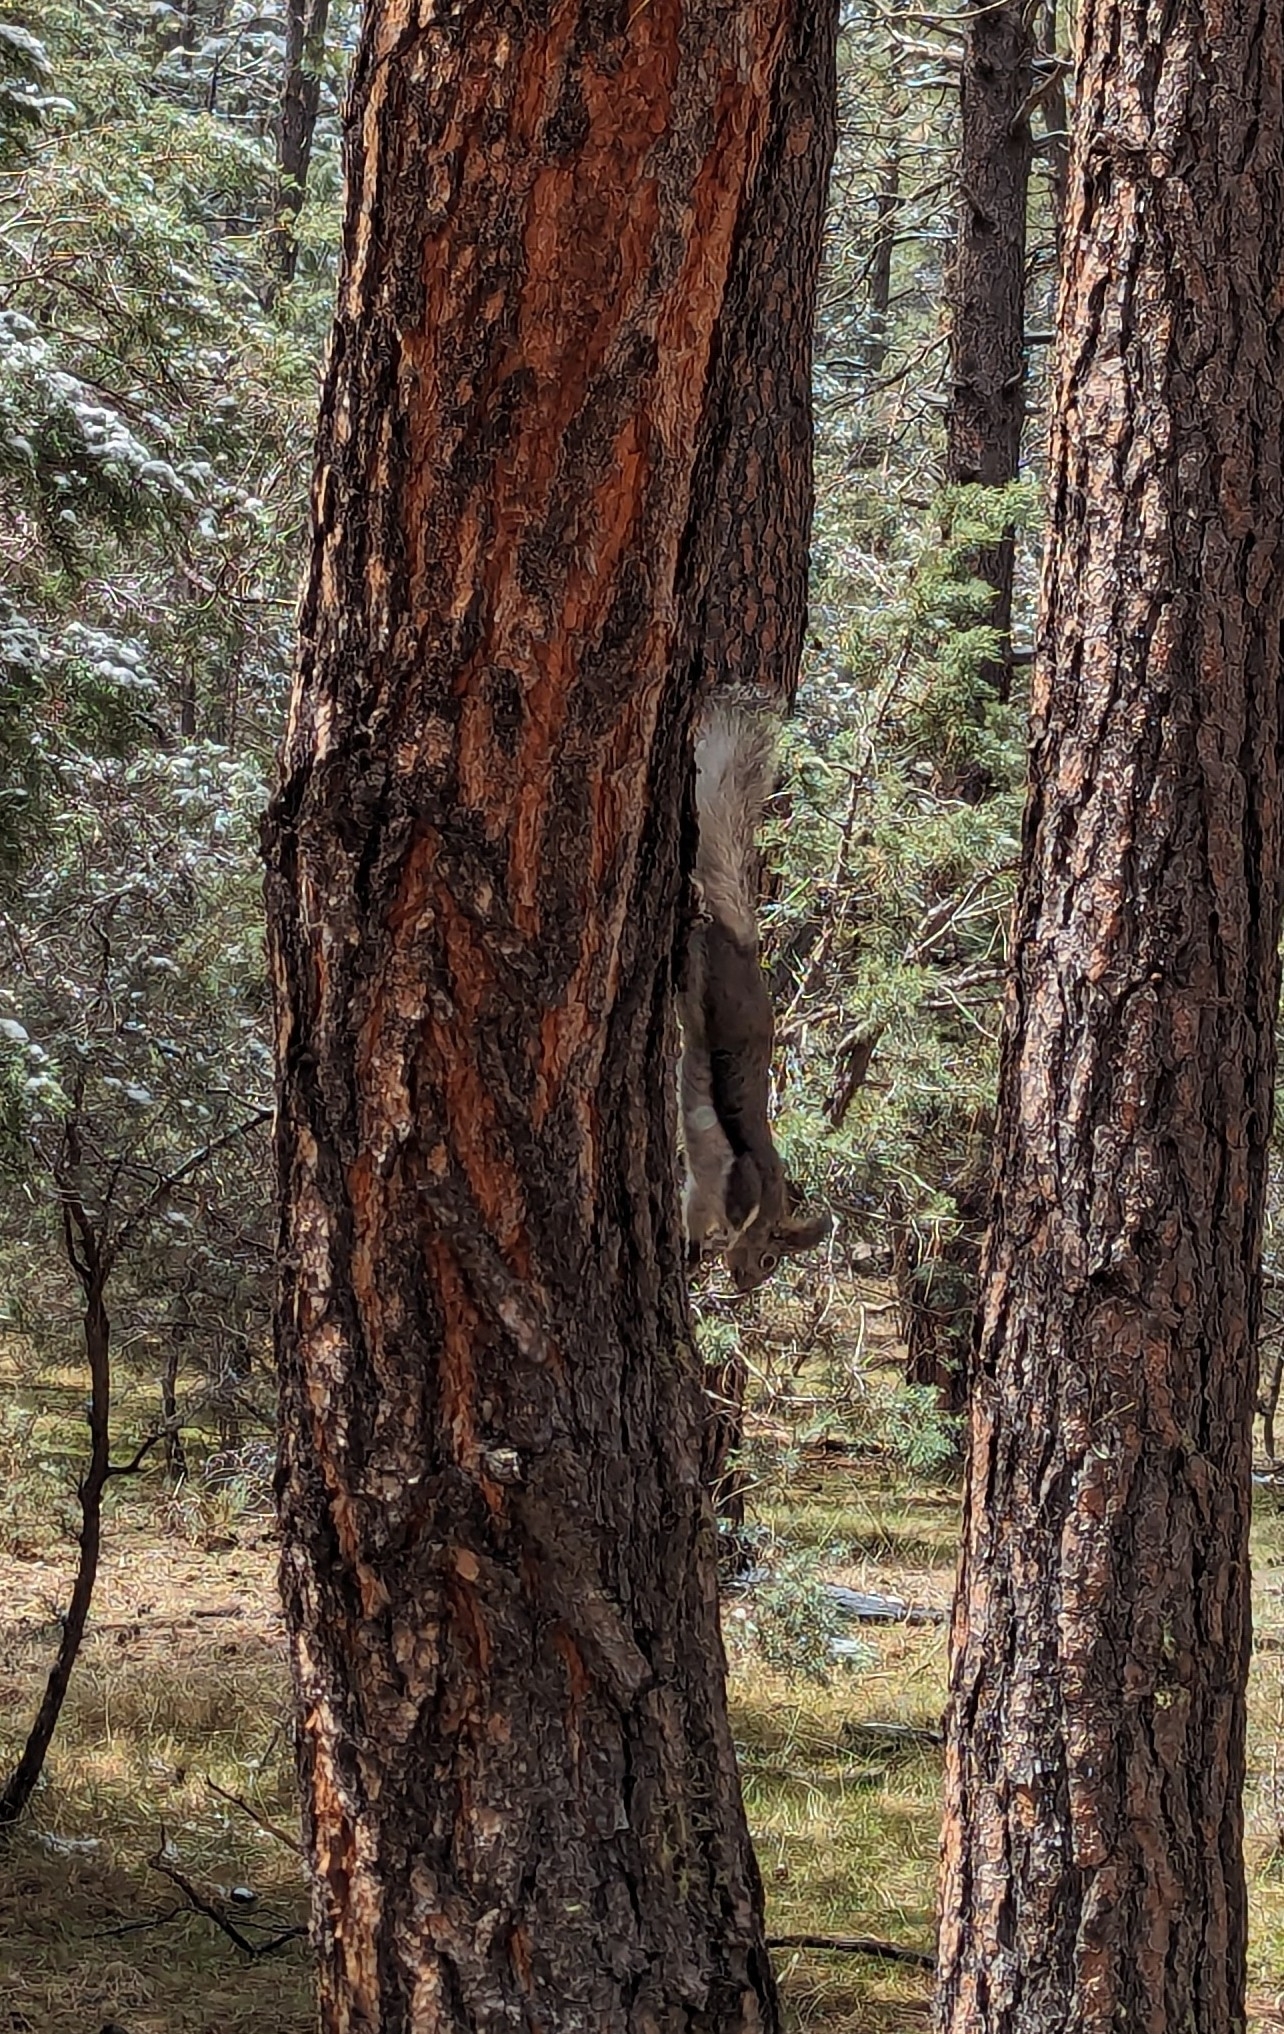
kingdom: Animalia
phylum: Chordata
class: Mammalia
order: Rodentia
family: Sciuridae
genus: Sciurus
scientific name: Sciurus aberti
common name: Abert's squirrel
